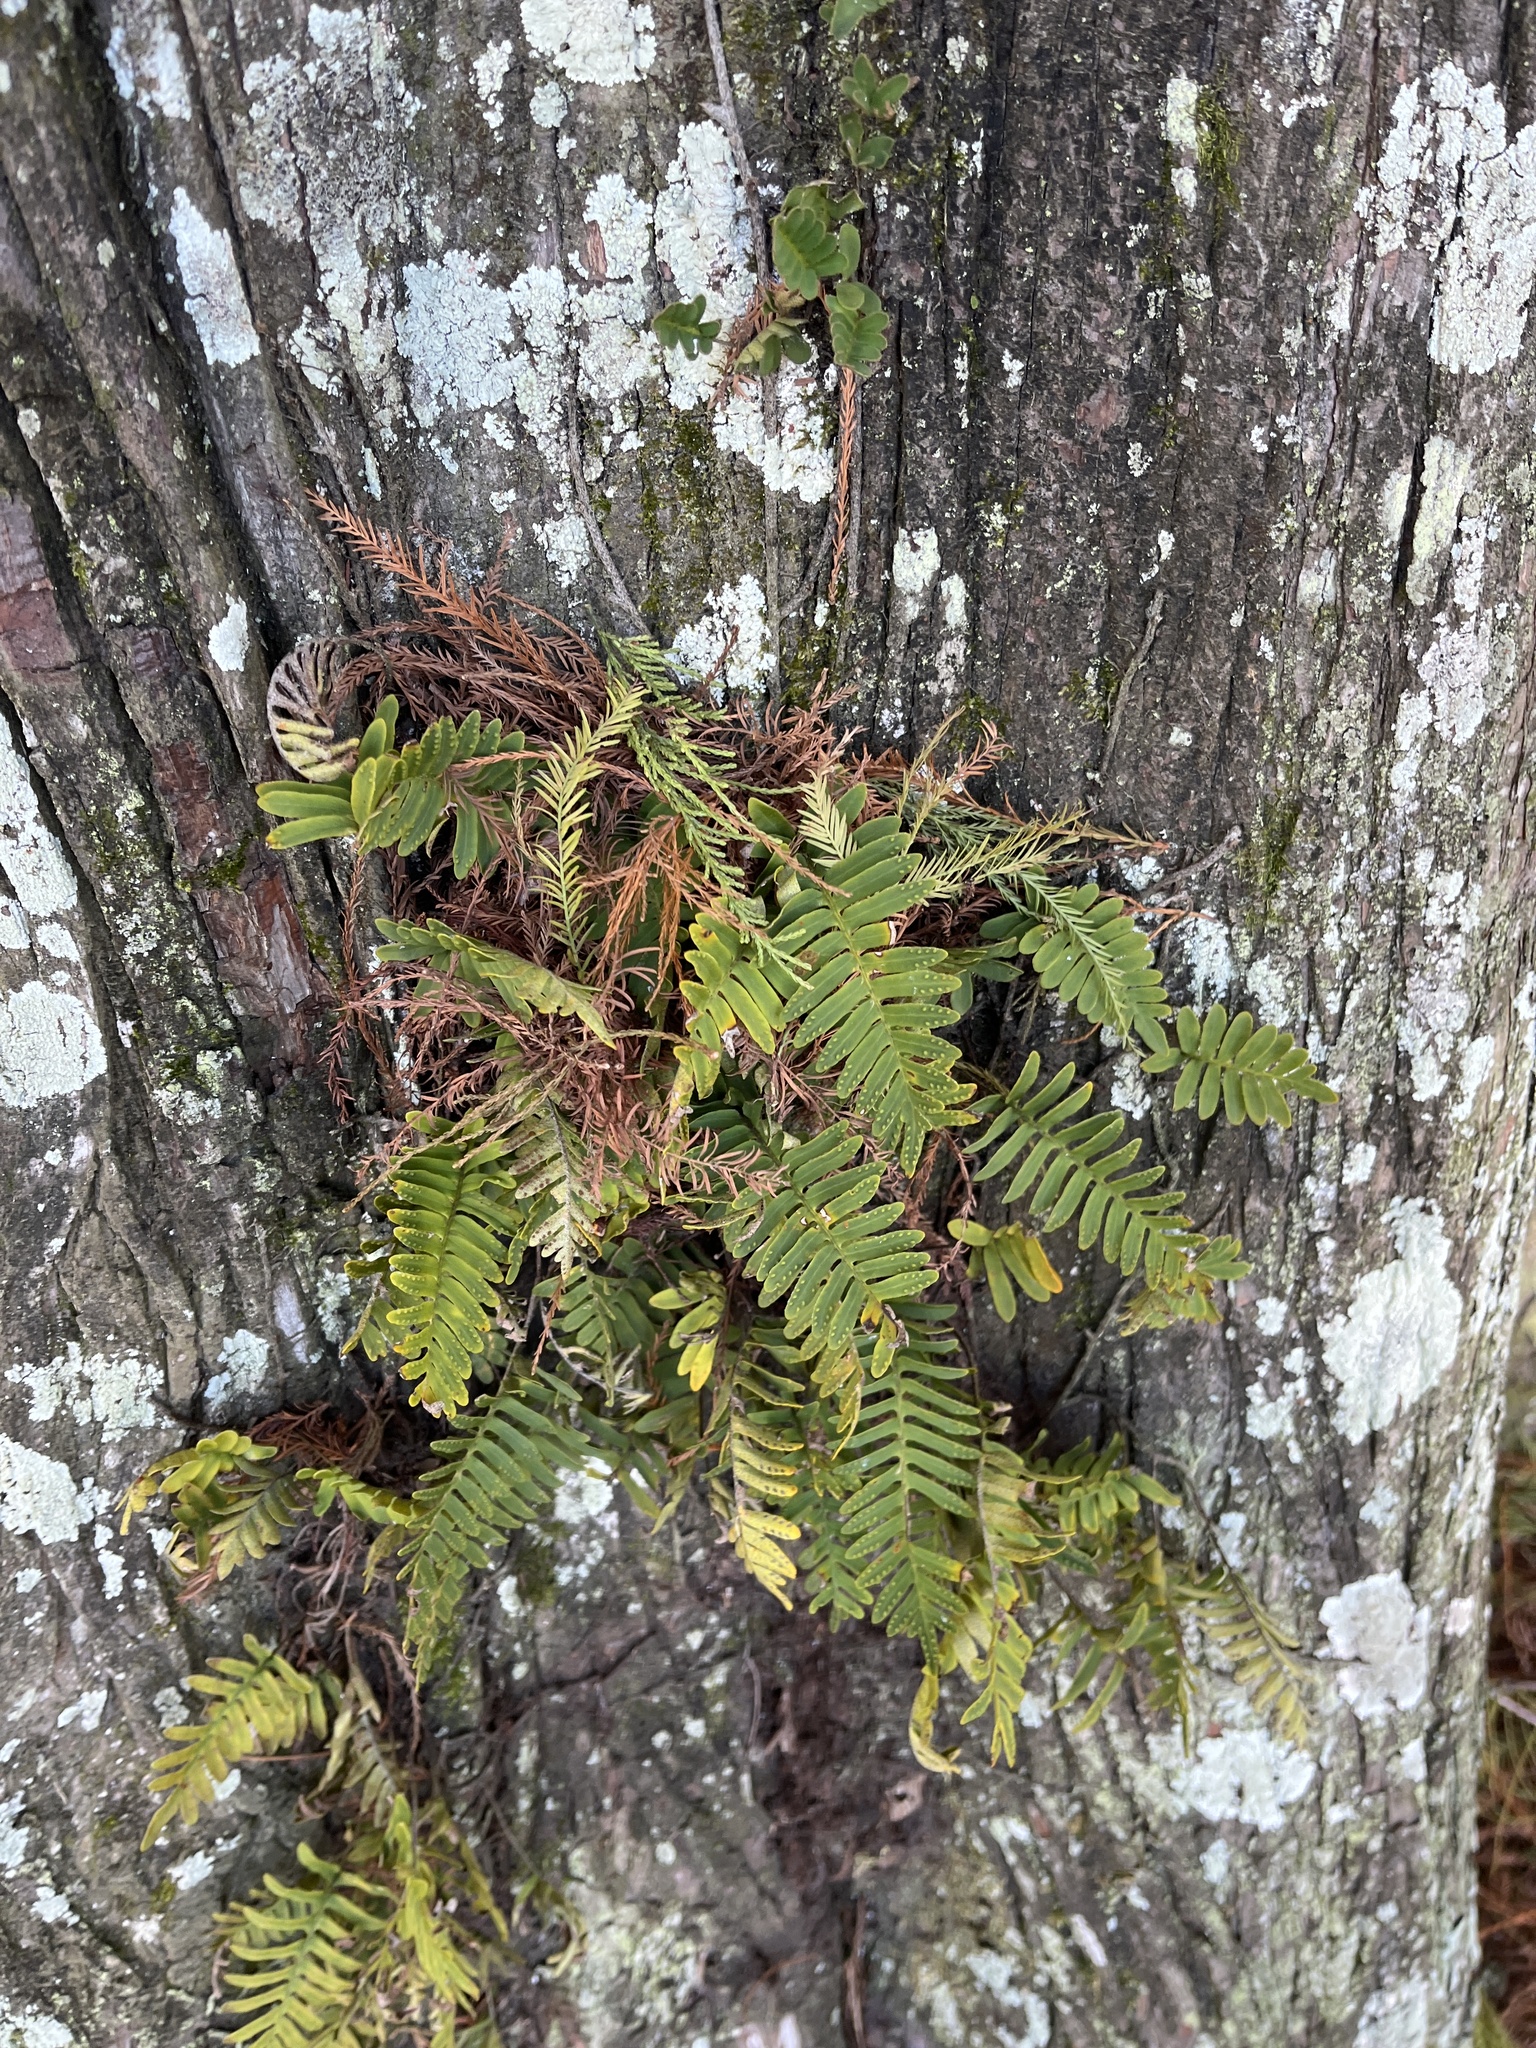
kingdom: Plantae
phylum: Tracheophyta
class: Polypodiopsida
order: Polypodiales
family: Polypodiaceae
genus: Pleopeltis
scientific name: Pleopeltis michauxiana
